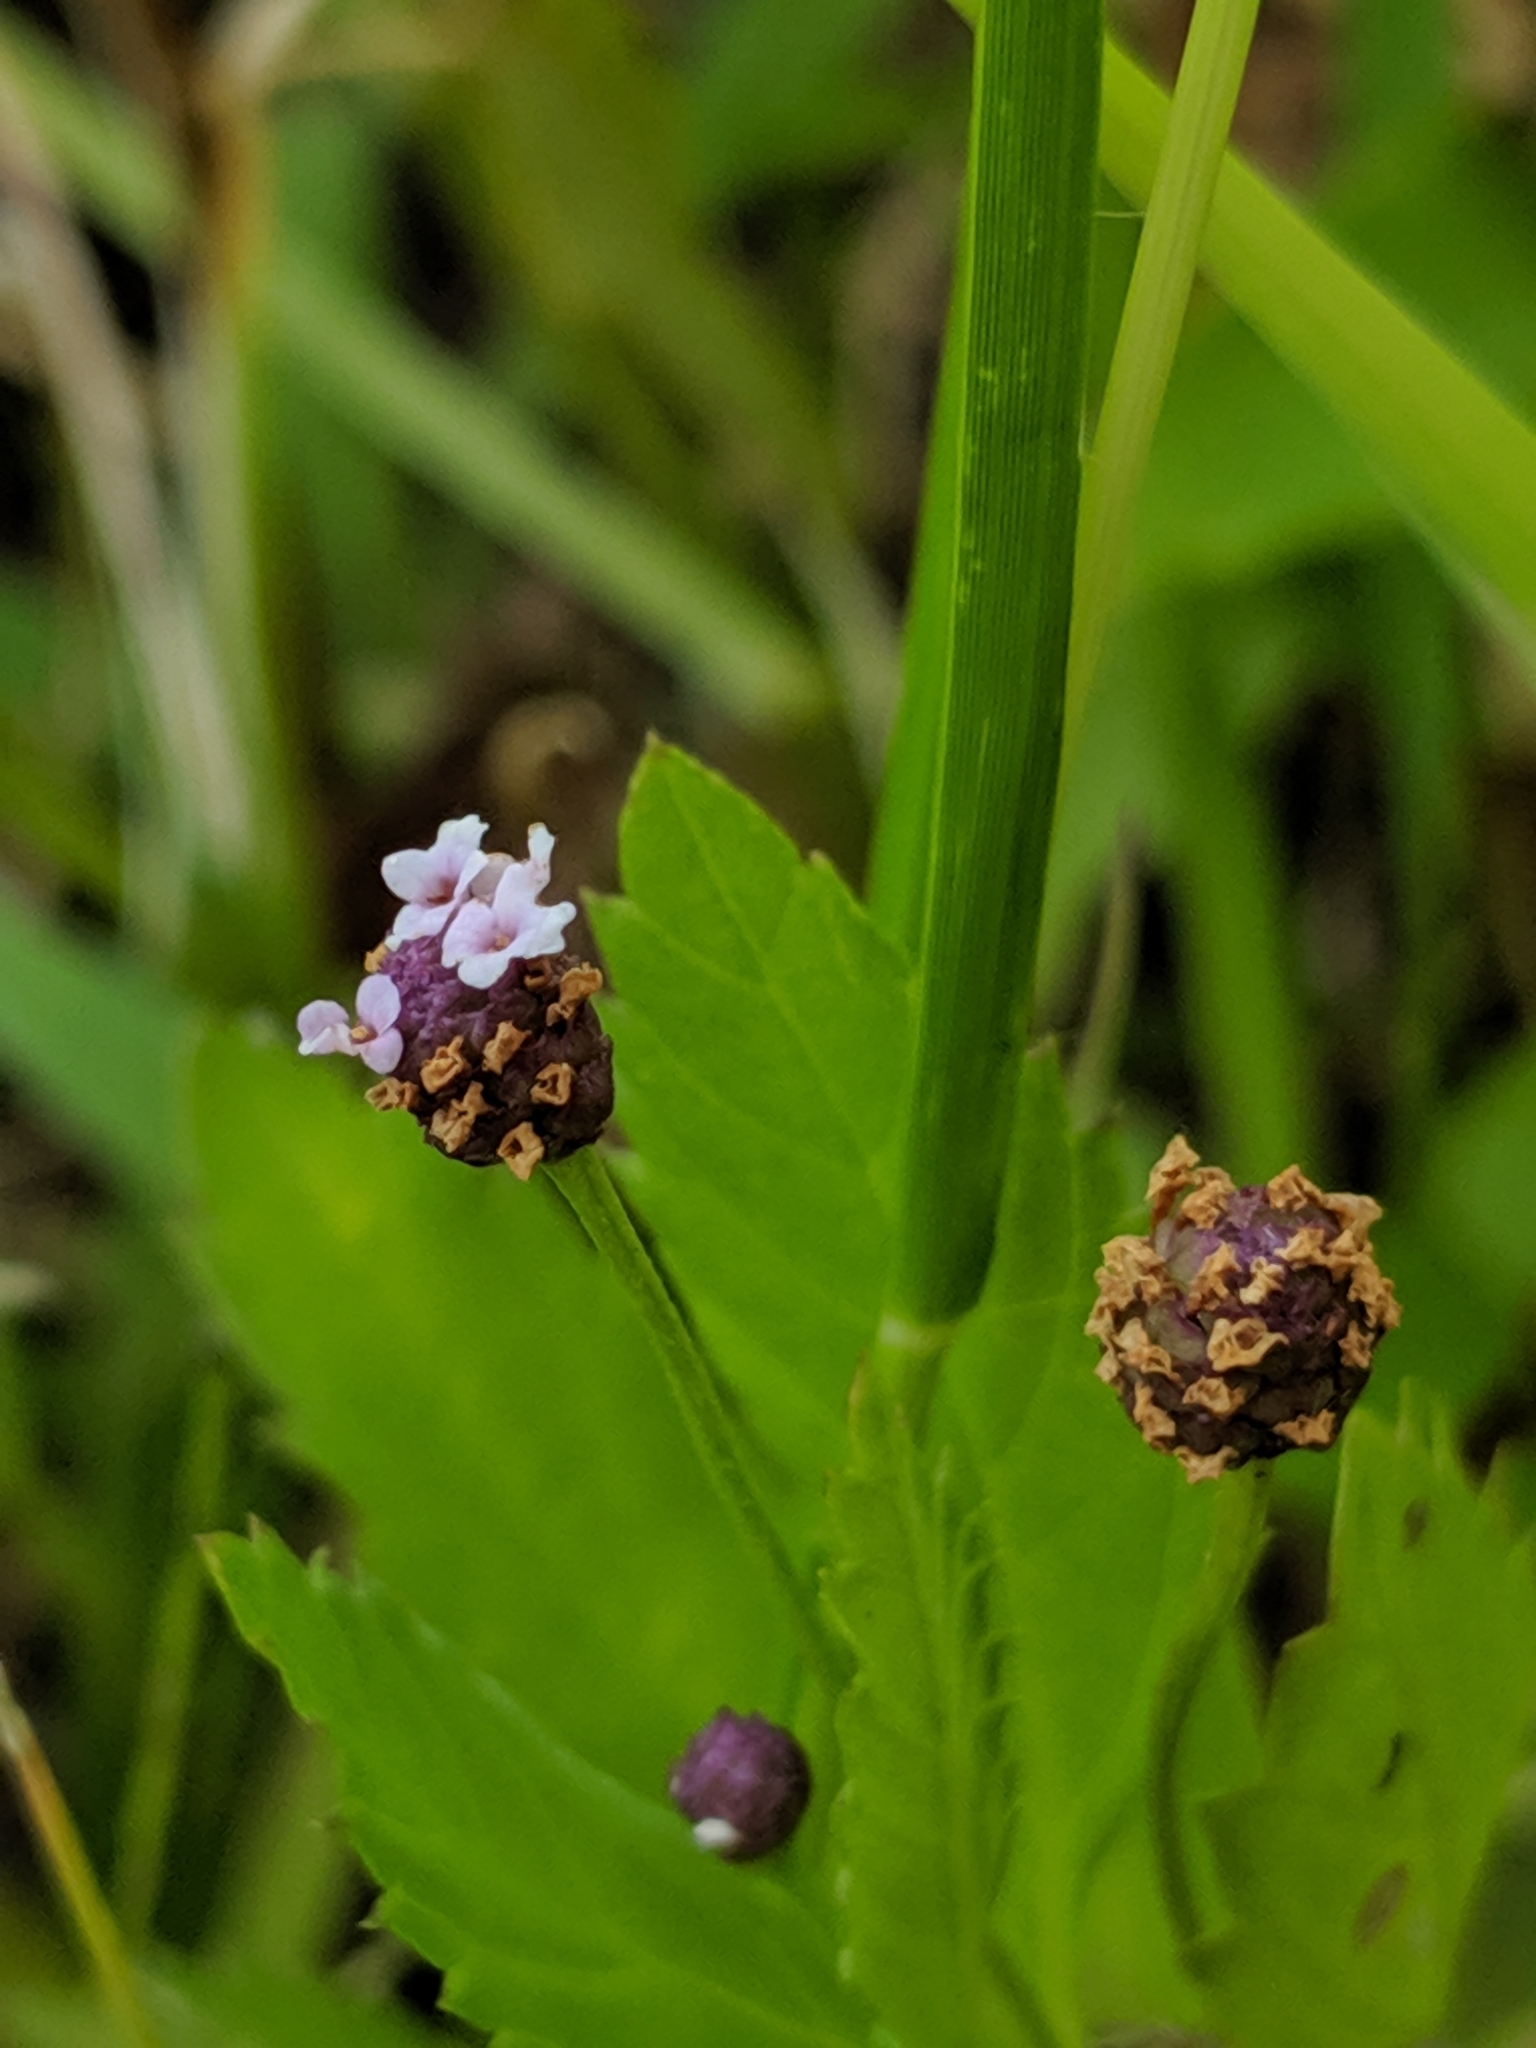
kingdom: Plantae
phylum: Tracheophyta
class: Magnoliopsida
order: Lamiales
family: Verbenaceae
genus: Phyla
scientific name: Phyla lanceolata
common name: Northern fogfruit
